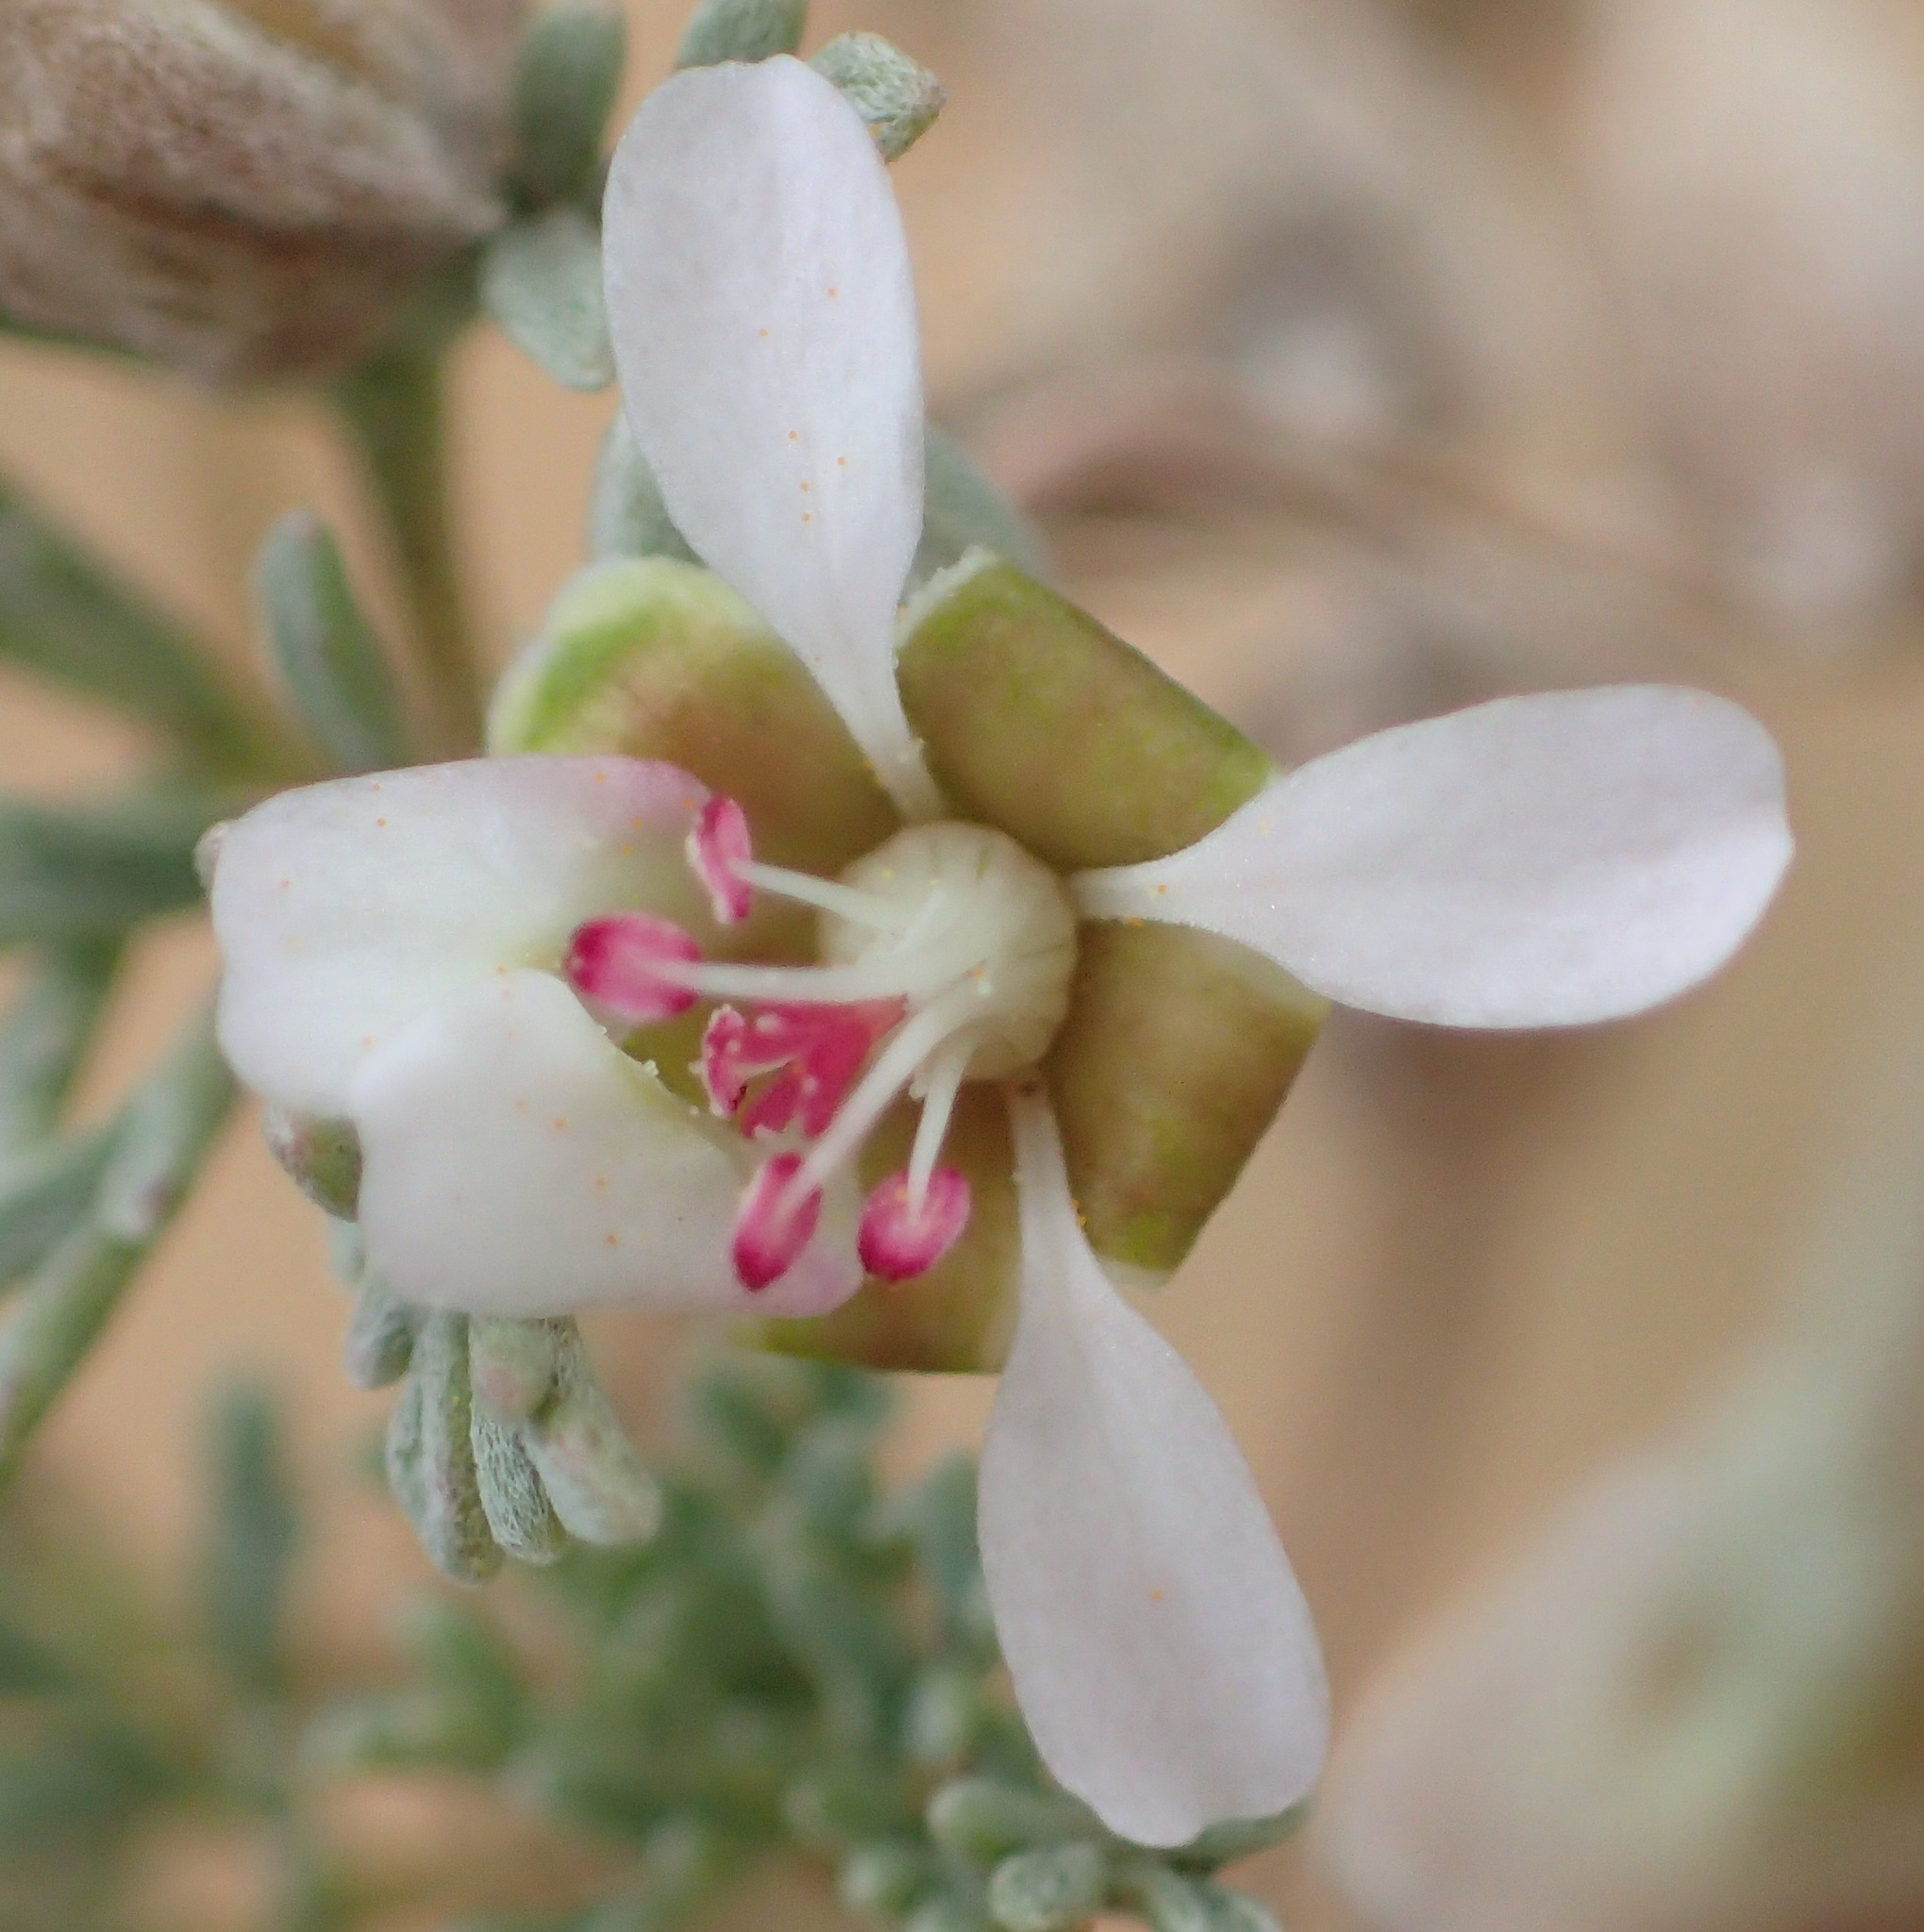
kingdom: Plantae
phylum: Tracheophyta
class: Magnoliopsida
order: Geraniales
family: Geraniaceae
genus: Pelargonium
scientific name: Pelargonium nanum
